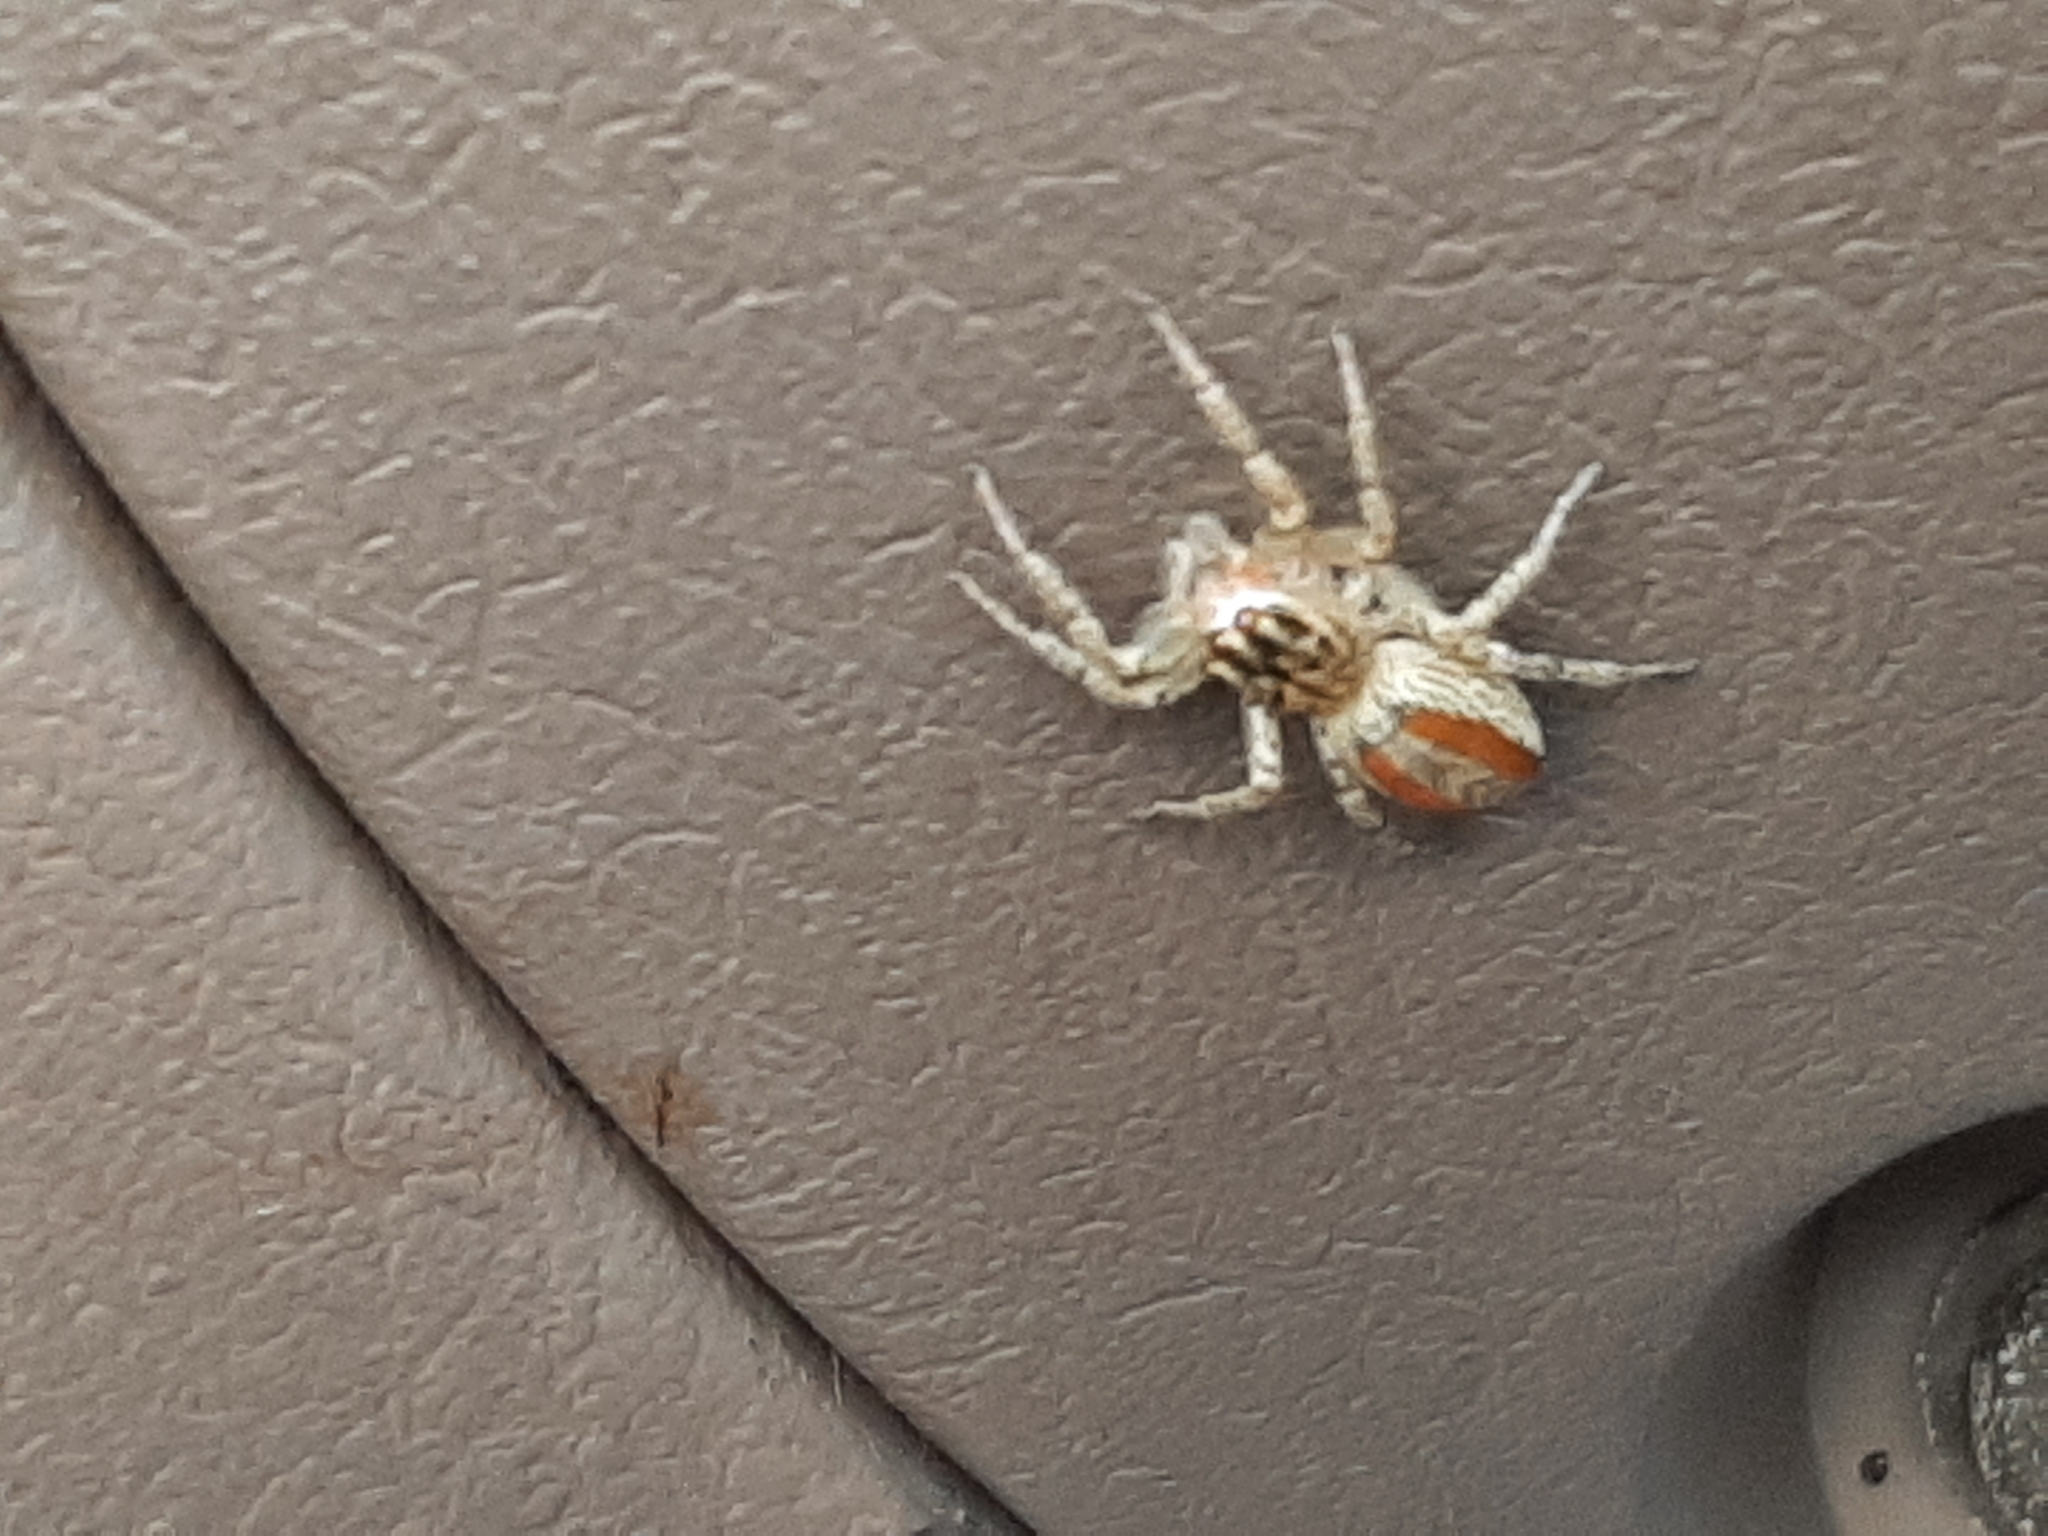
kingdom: Animalia
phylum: Arthropoda
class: Arachnida
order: Araneae
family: Salticidae
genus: Maevia
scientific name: Maevia inclemens
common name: Dimorphic jumper
